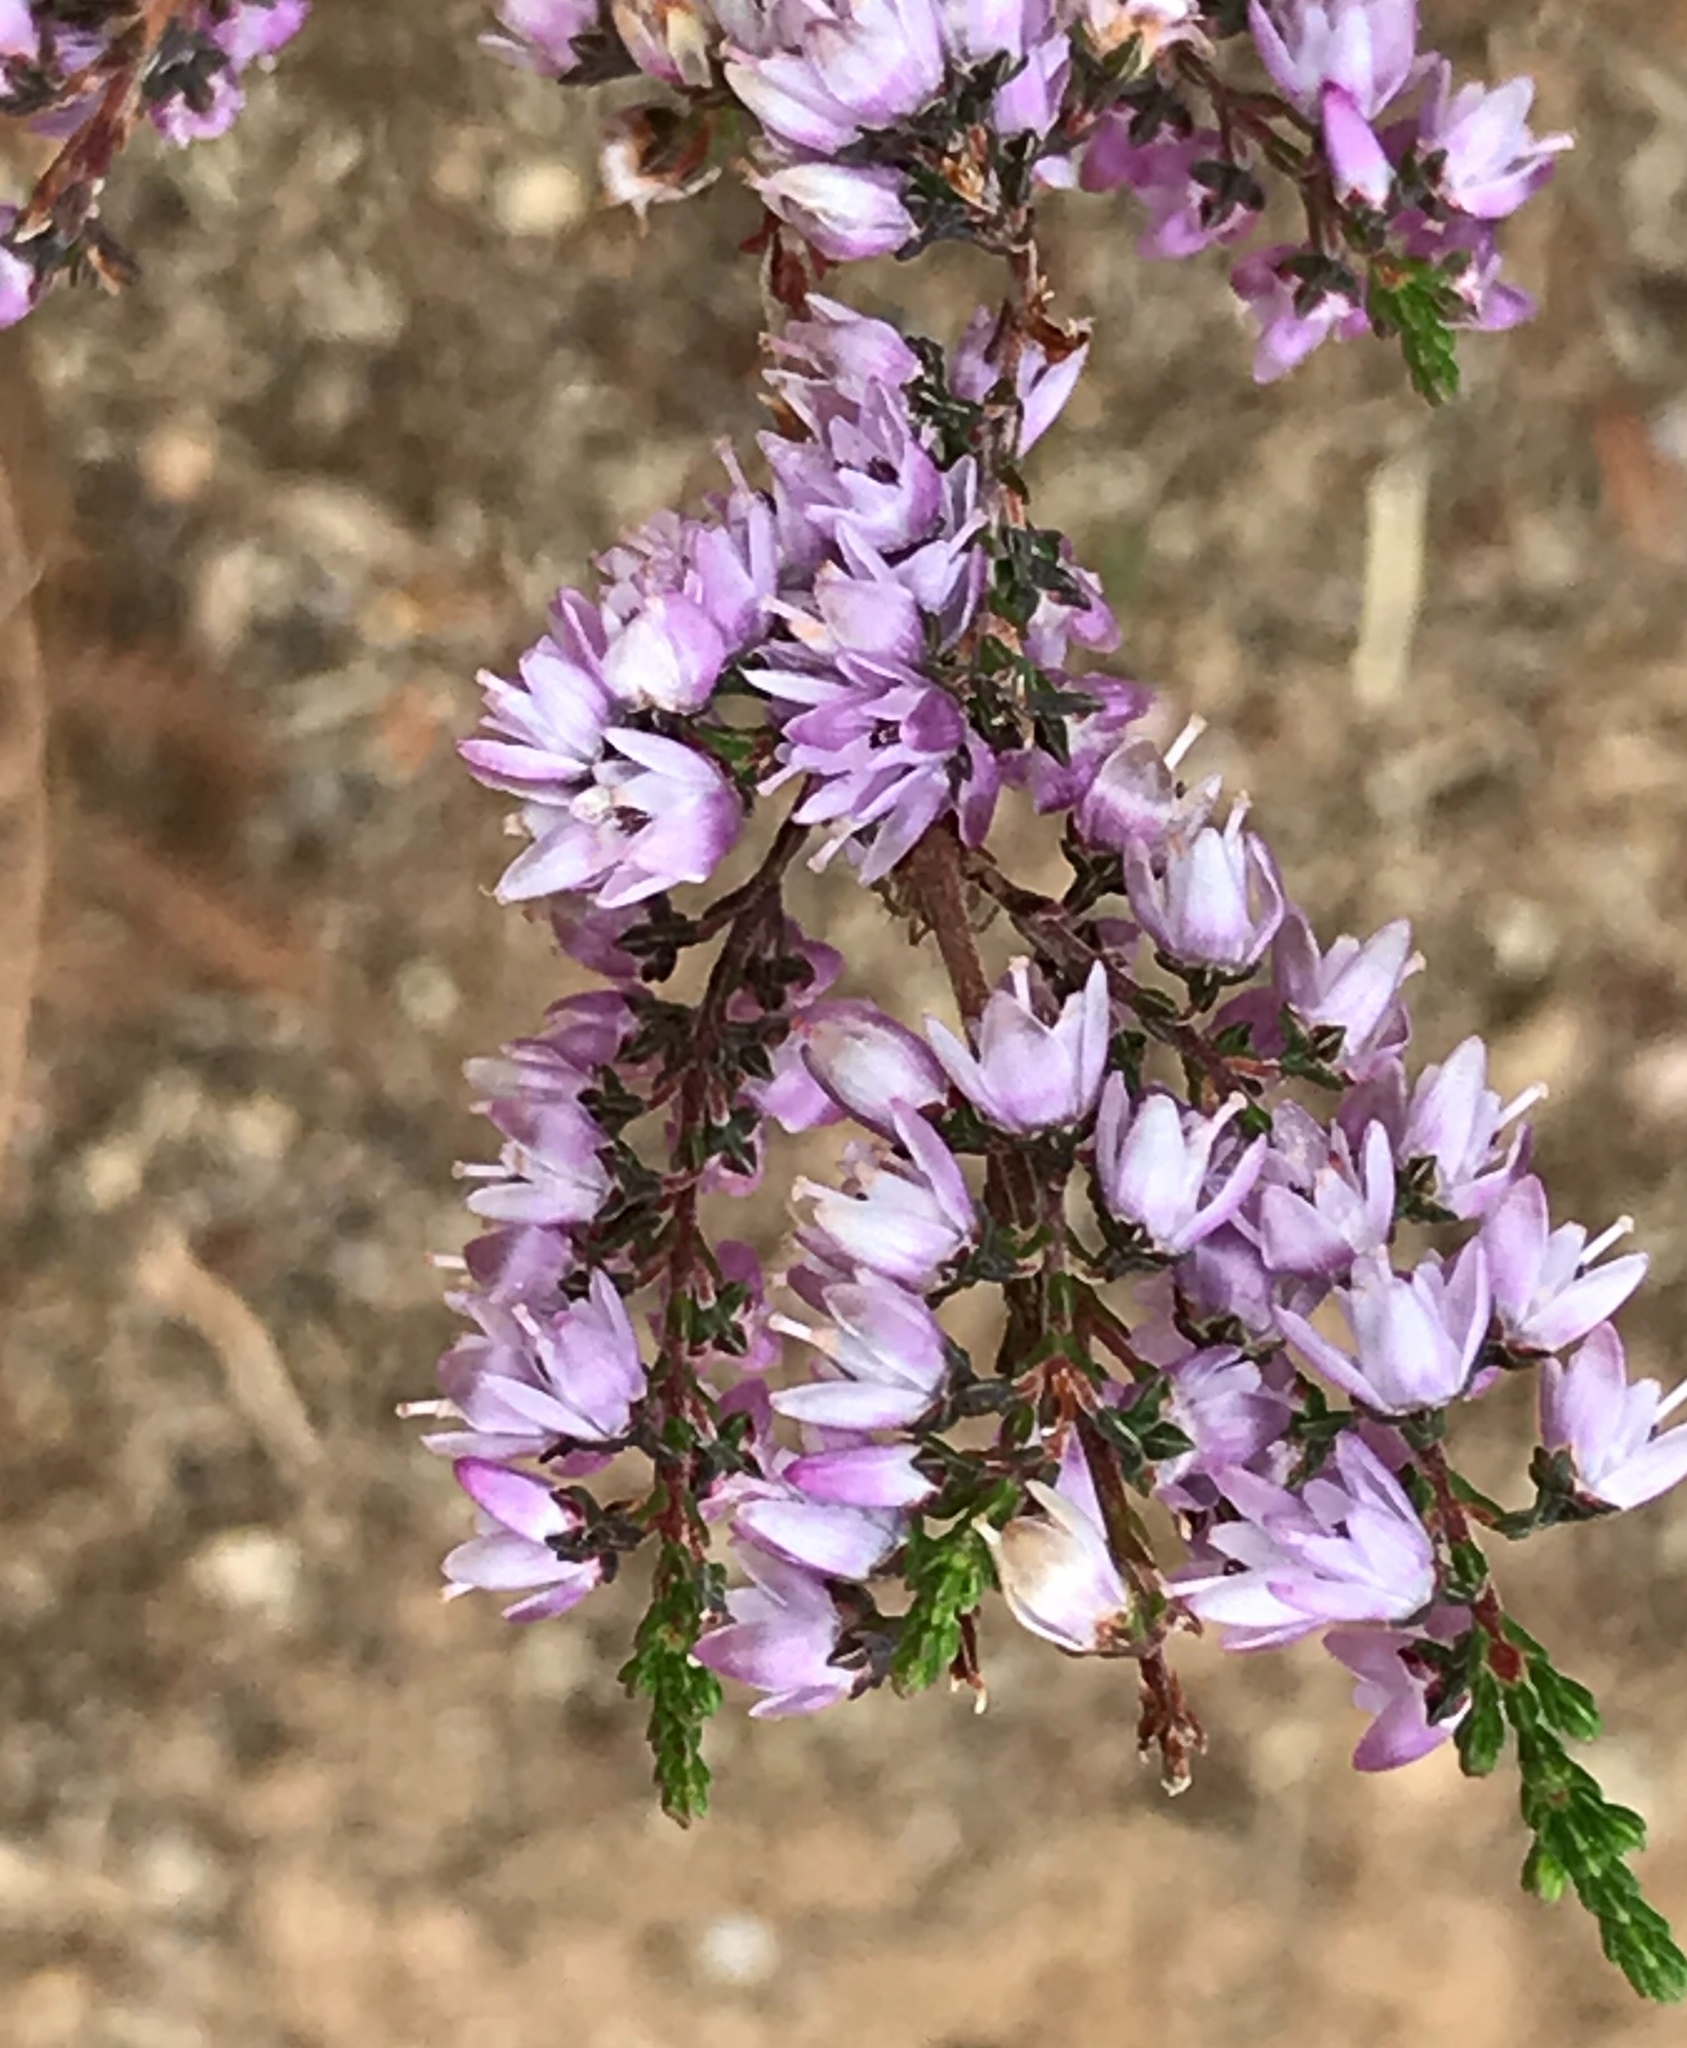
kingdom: Plantae
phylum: Tracheophyta
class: Magnoliopsida
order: Ericales
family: Ericaceae
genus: Calluna
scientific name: Calluna vulgaris
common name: Heather
